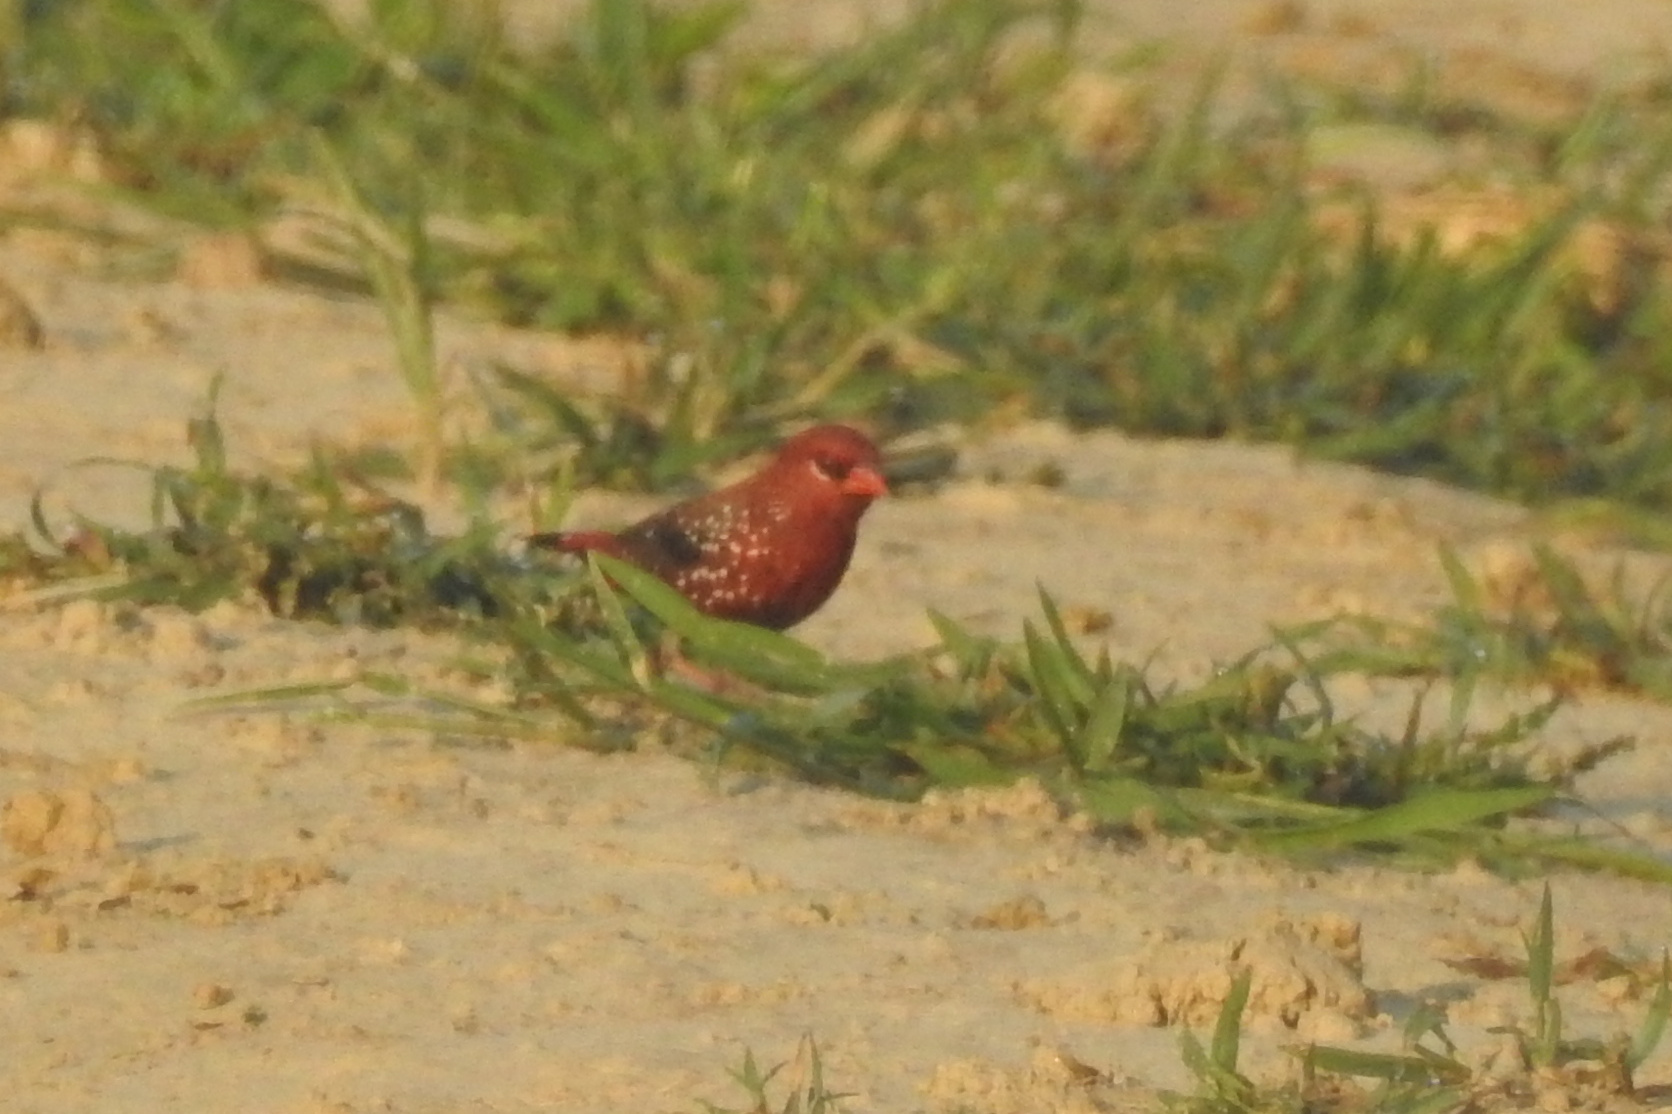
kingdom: Animalia
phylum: Chordata
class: Aves
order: Passeriformes
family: Estrildidae
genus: Amandava
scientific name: Amandava amandava
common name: Red avadavat
